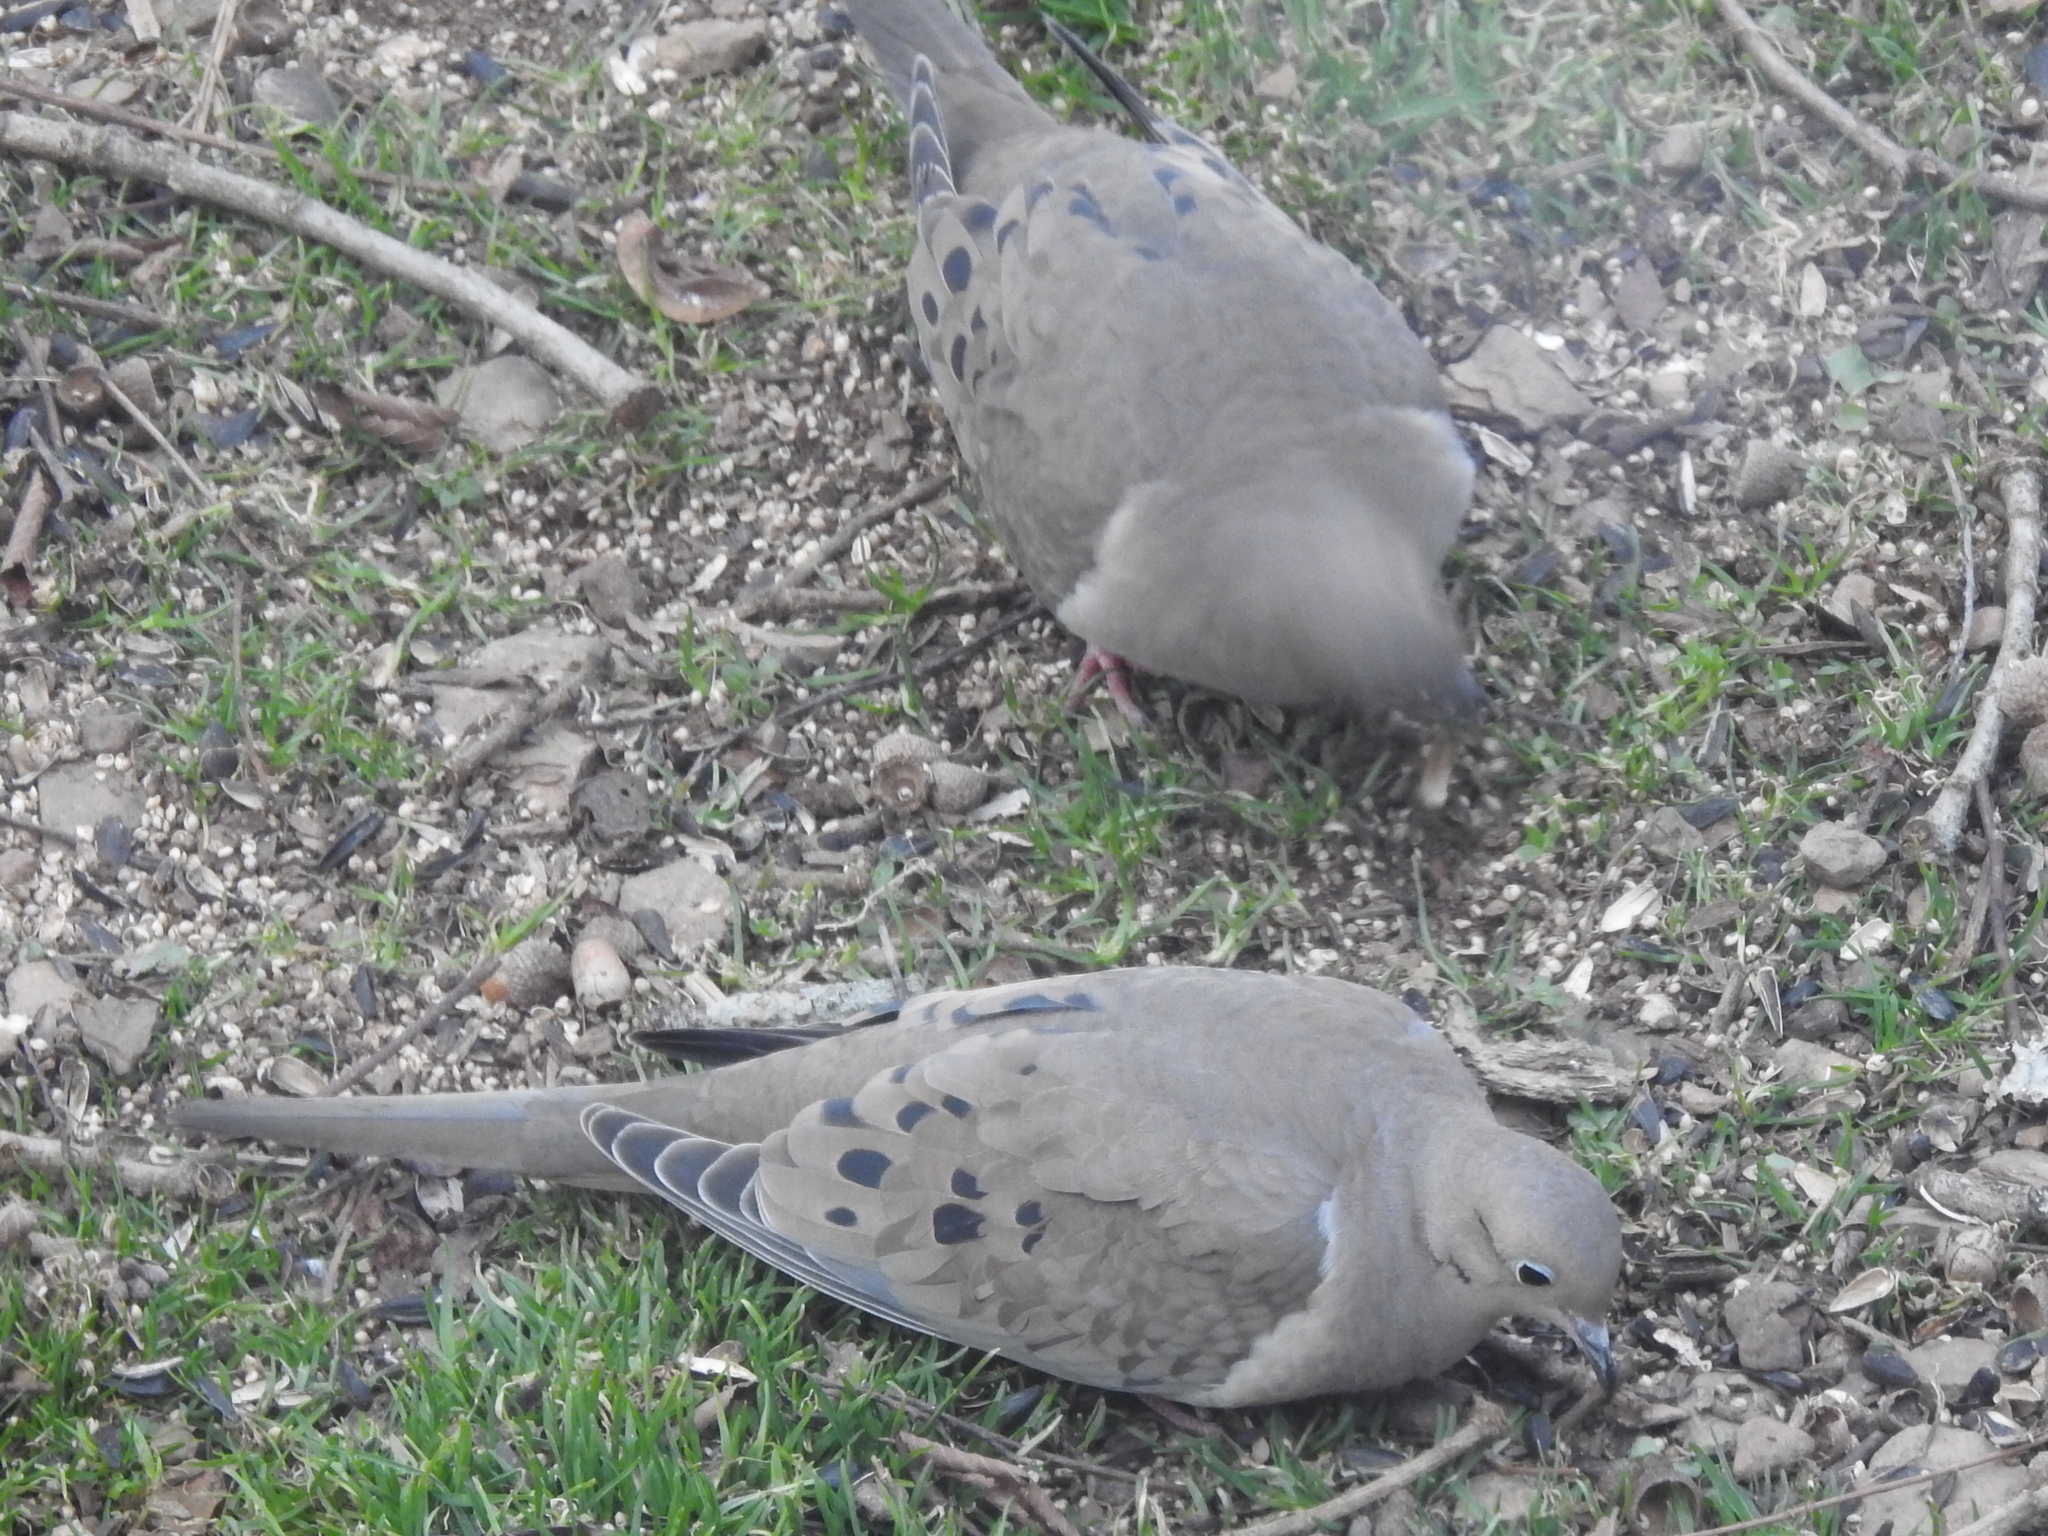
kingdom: Animalia
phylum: Chordata
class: Aves
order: Columbiformes
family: Columbidae
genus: Zenaida
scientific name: Zenaida macroura
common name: Mourning dove
